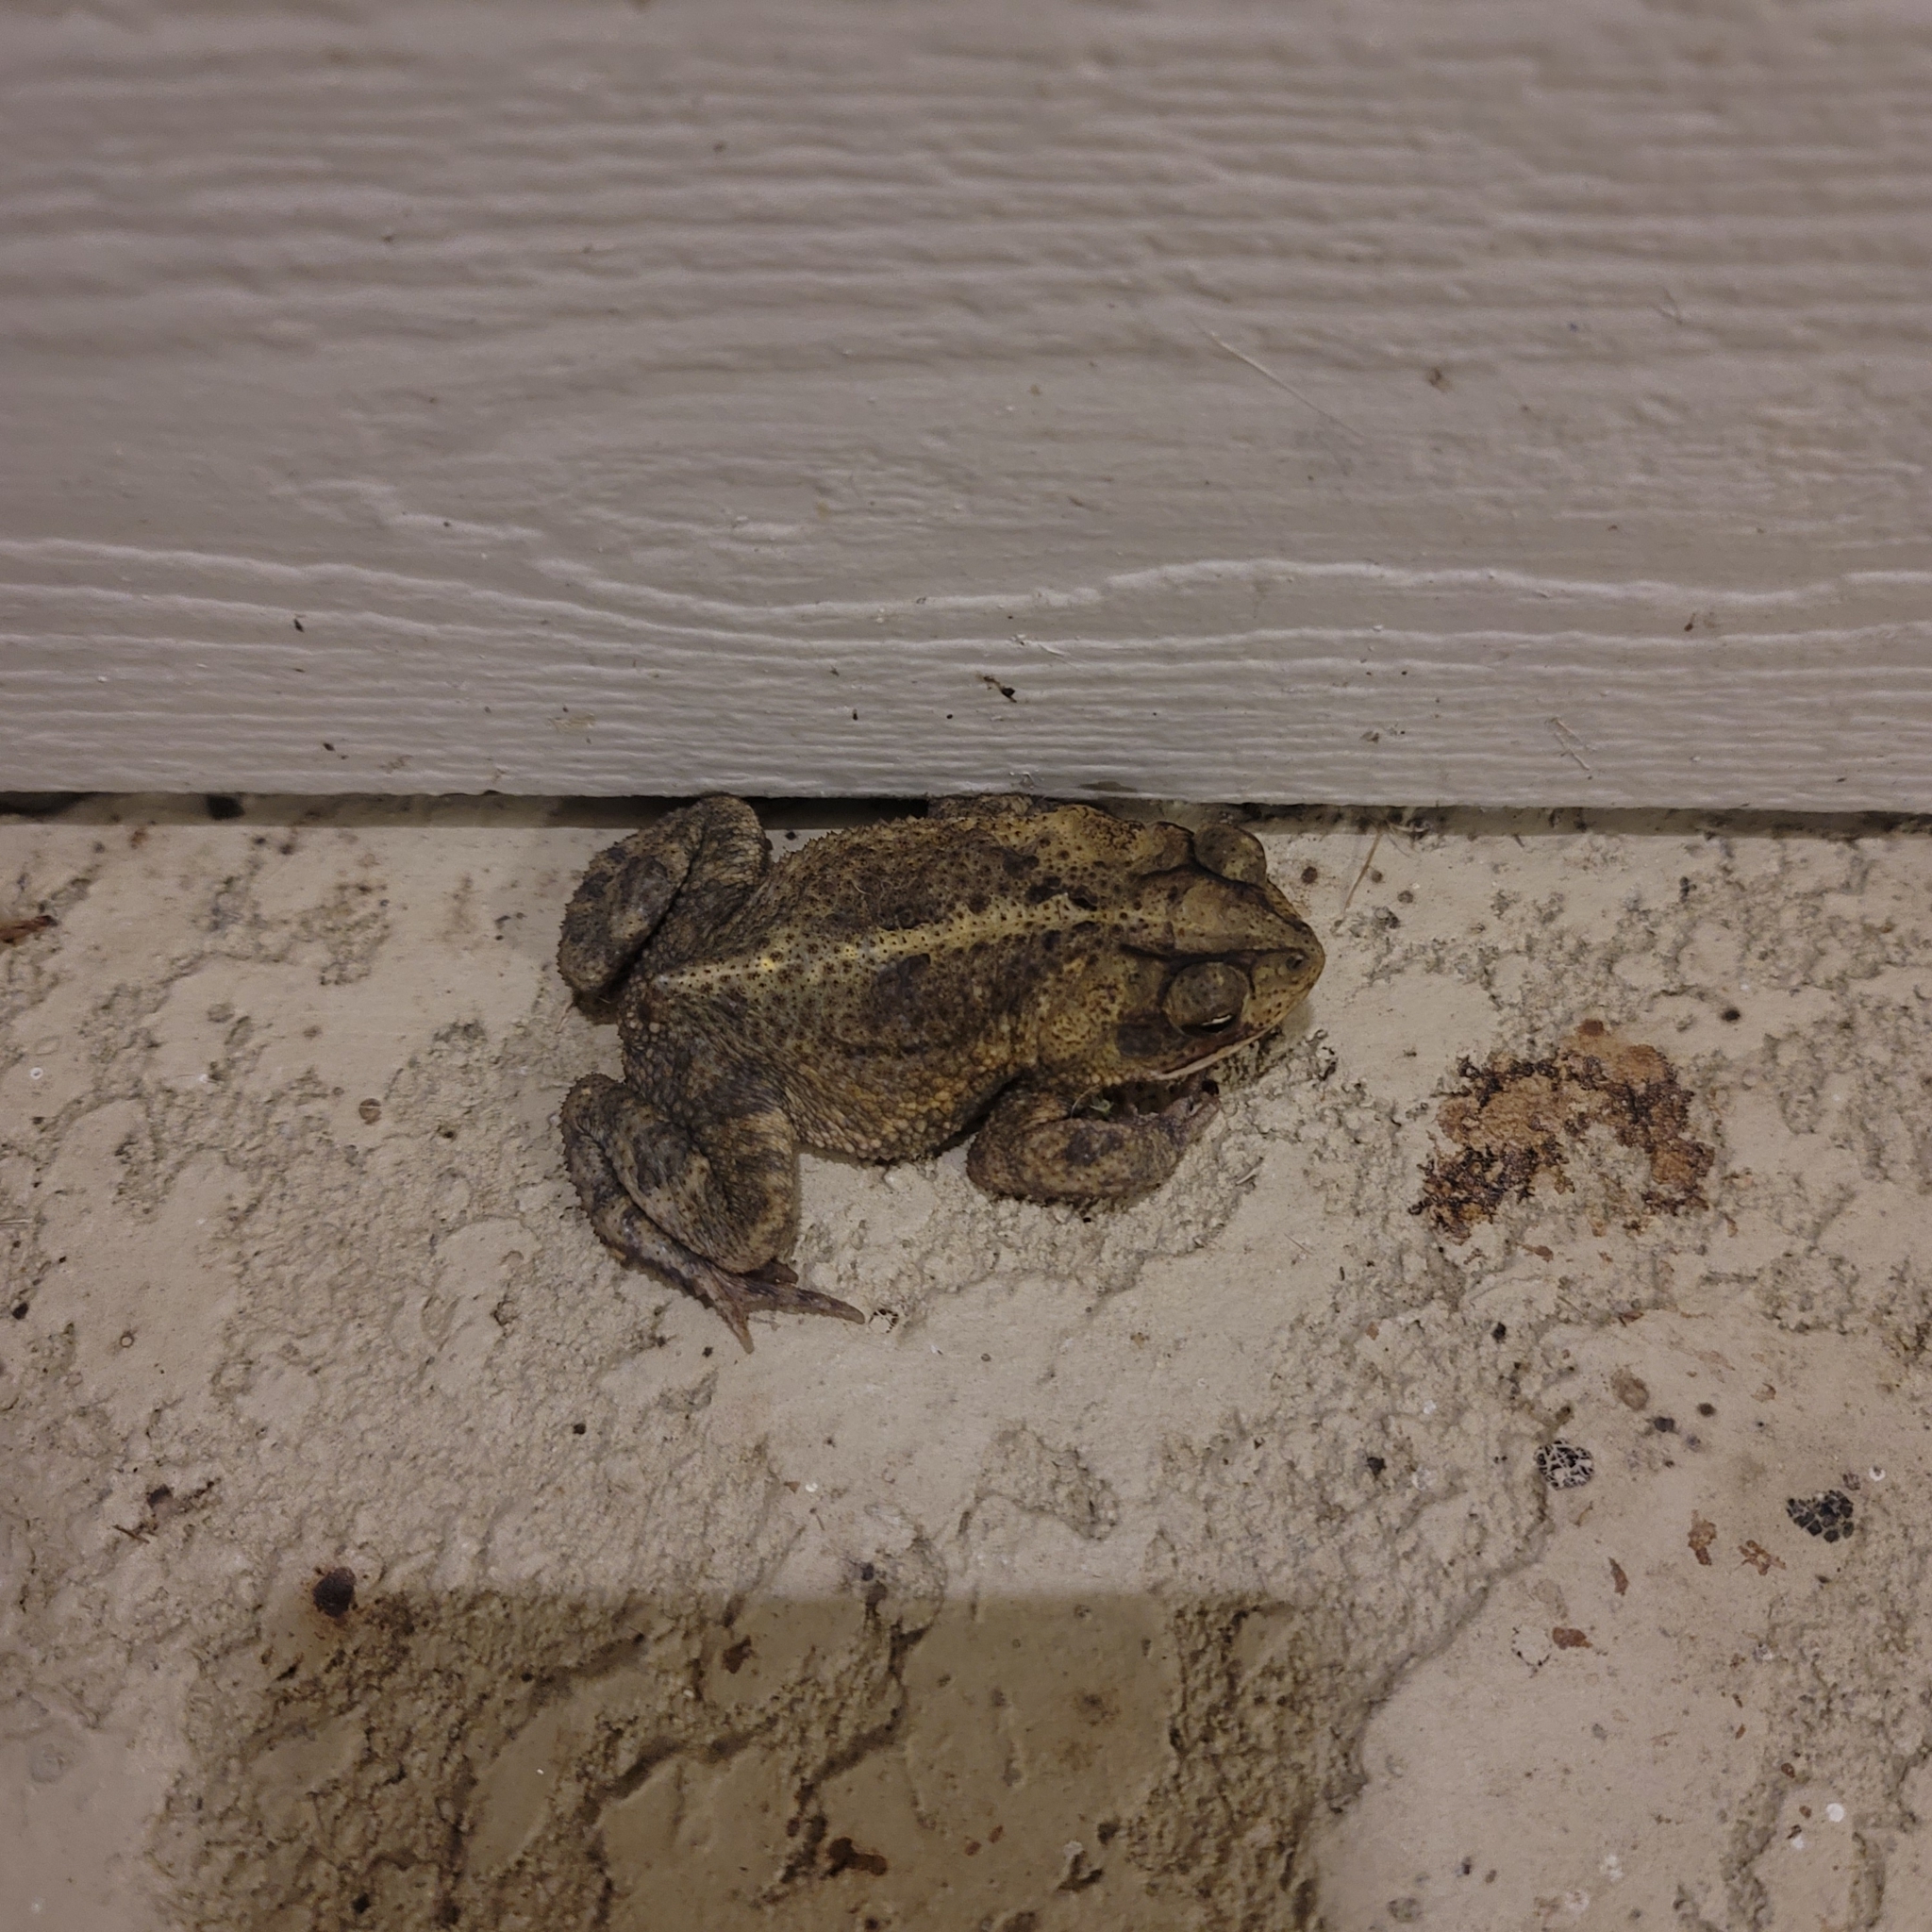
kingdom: Animalia
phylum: Chordata
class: Amphibia
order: Anura
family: Bufonidae
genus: Incilius
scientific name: Incilius nebulifer
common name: Gulf coast toad
